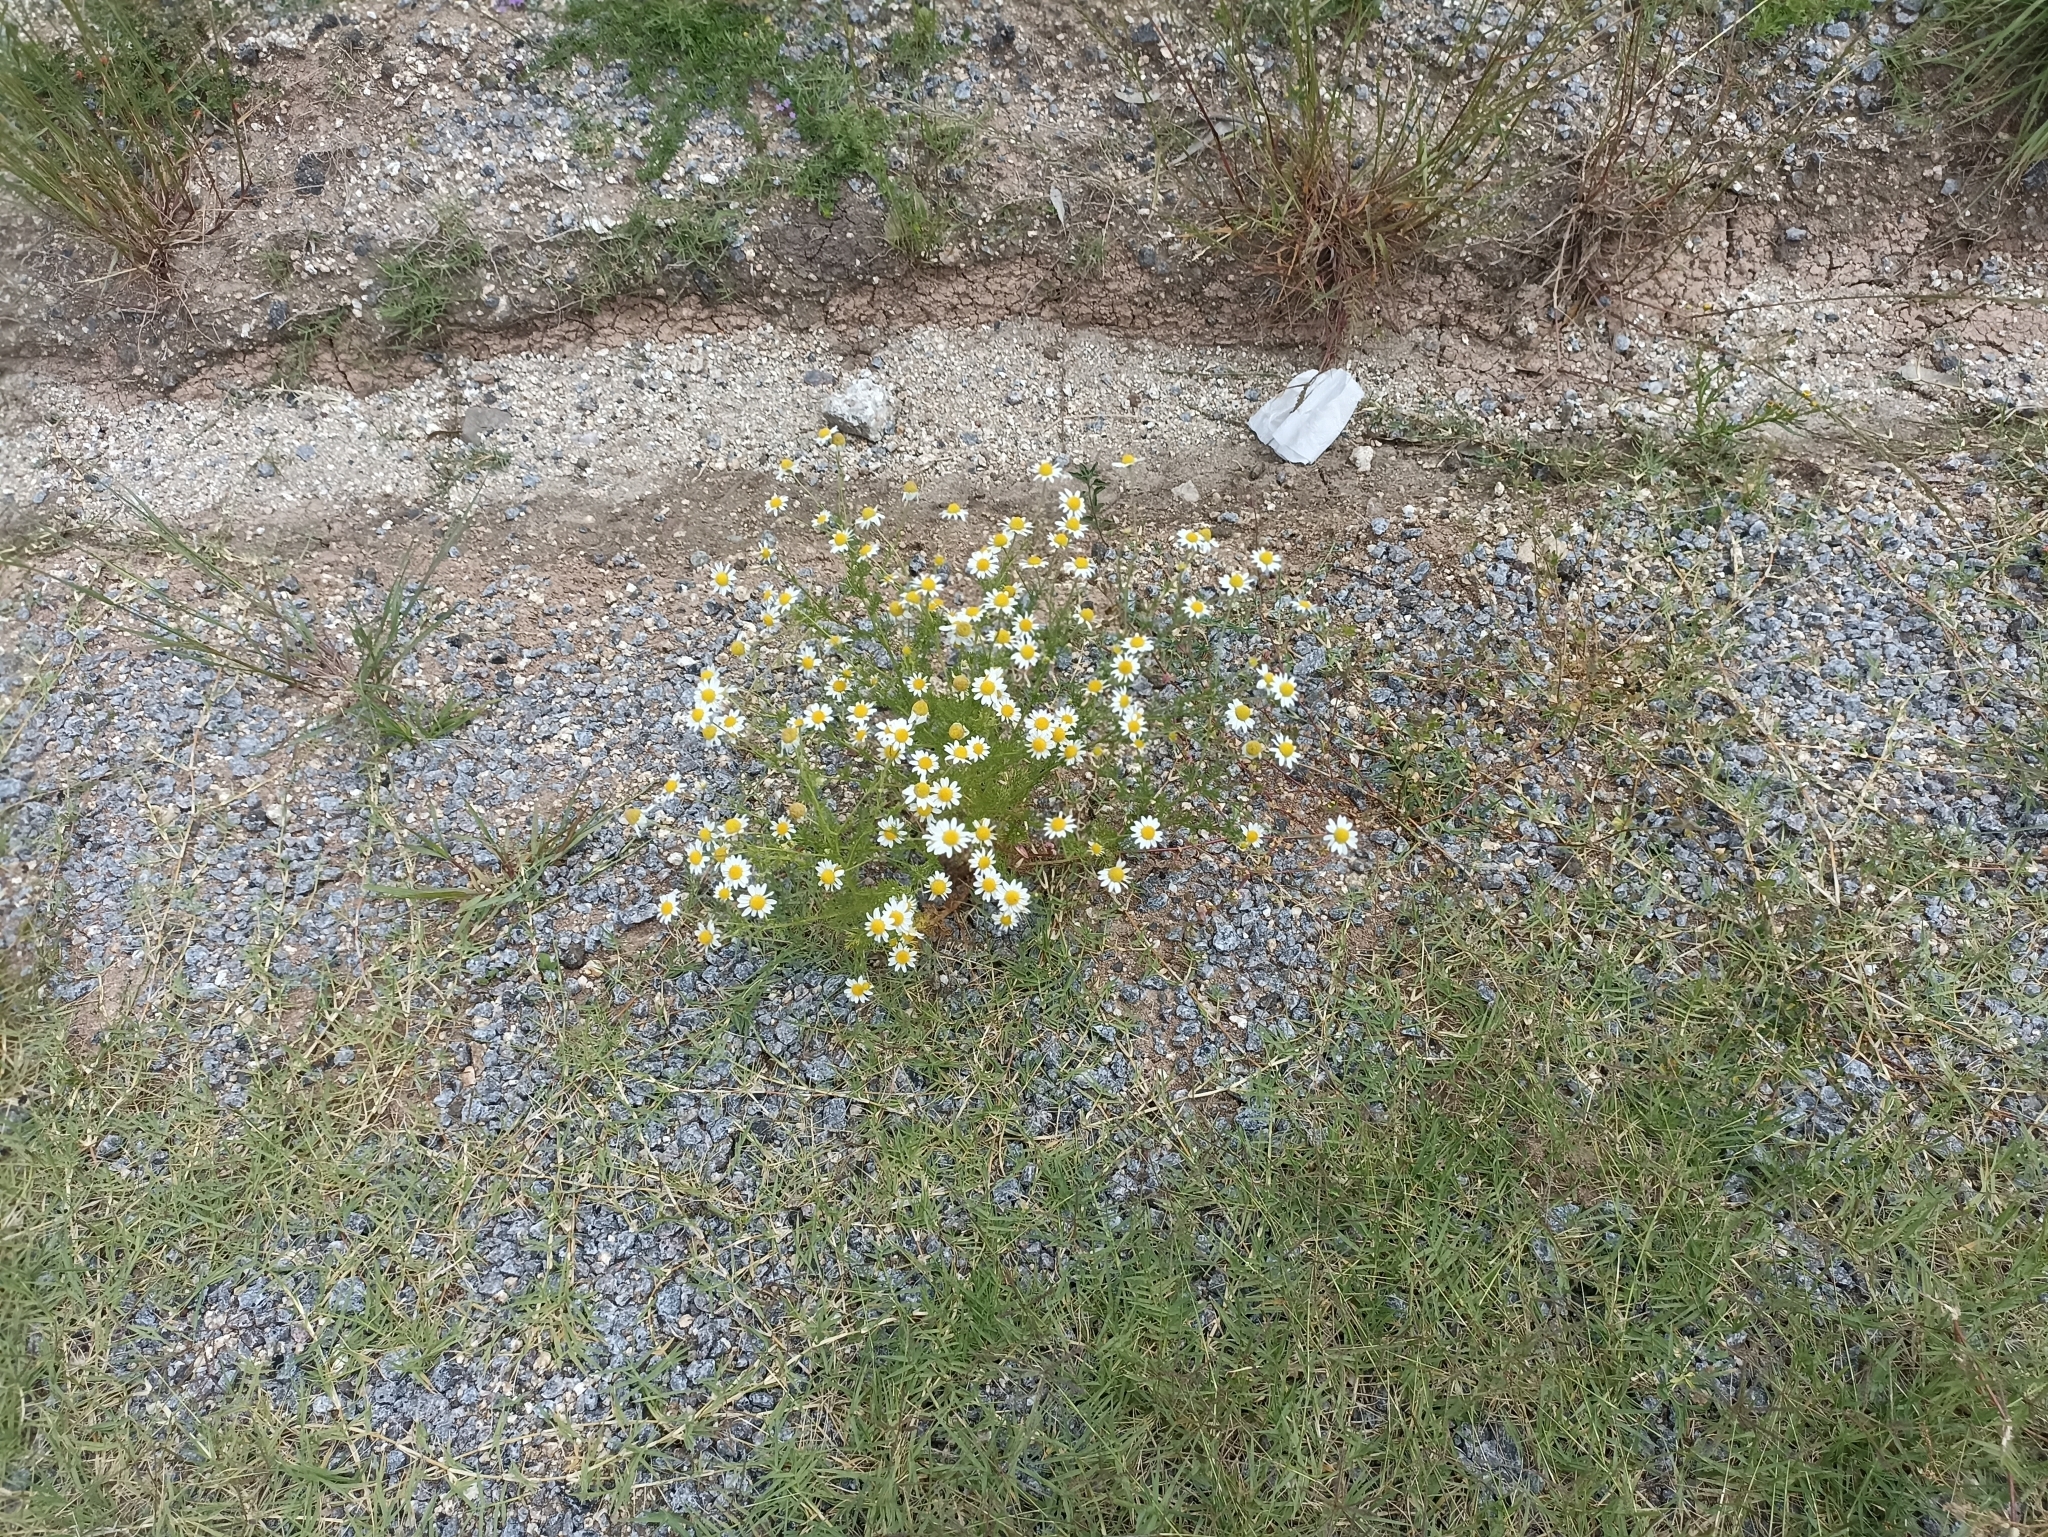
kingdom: Plantae
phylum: Tracheophyta
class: Magnoliopsida
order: Asterales
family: Asteraceae
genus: Anthemis
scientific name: Anthemis cotula
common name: Stinking chamomile
